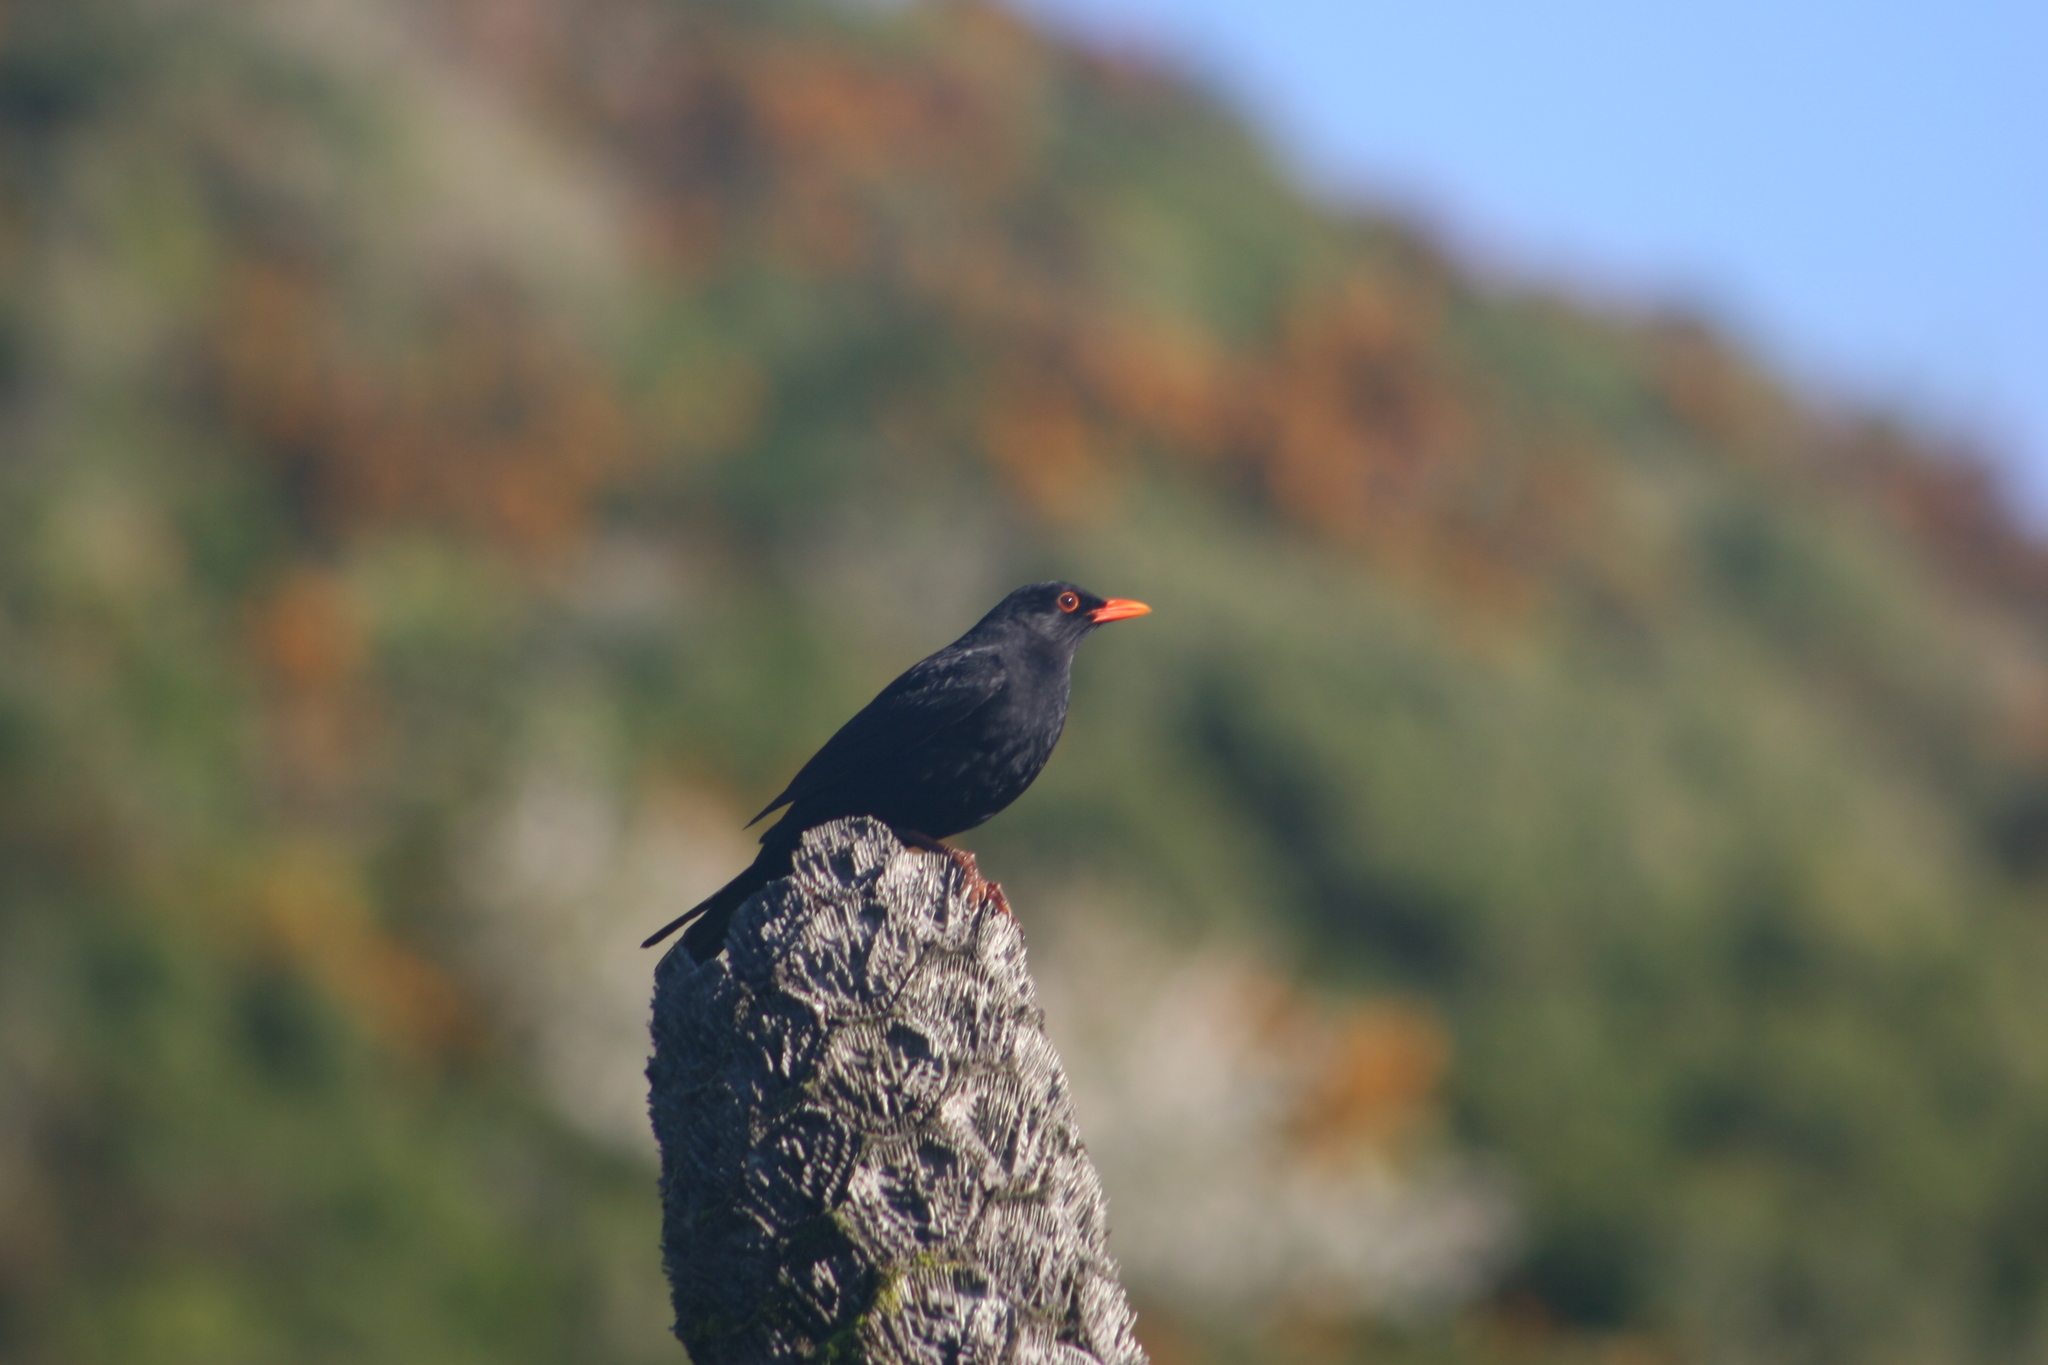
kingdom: Animalia
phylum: Chordata
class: Aves
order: Passeriformes
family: Turdidae
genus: Turdus
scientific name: Turdus merula
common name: Common blackbird
